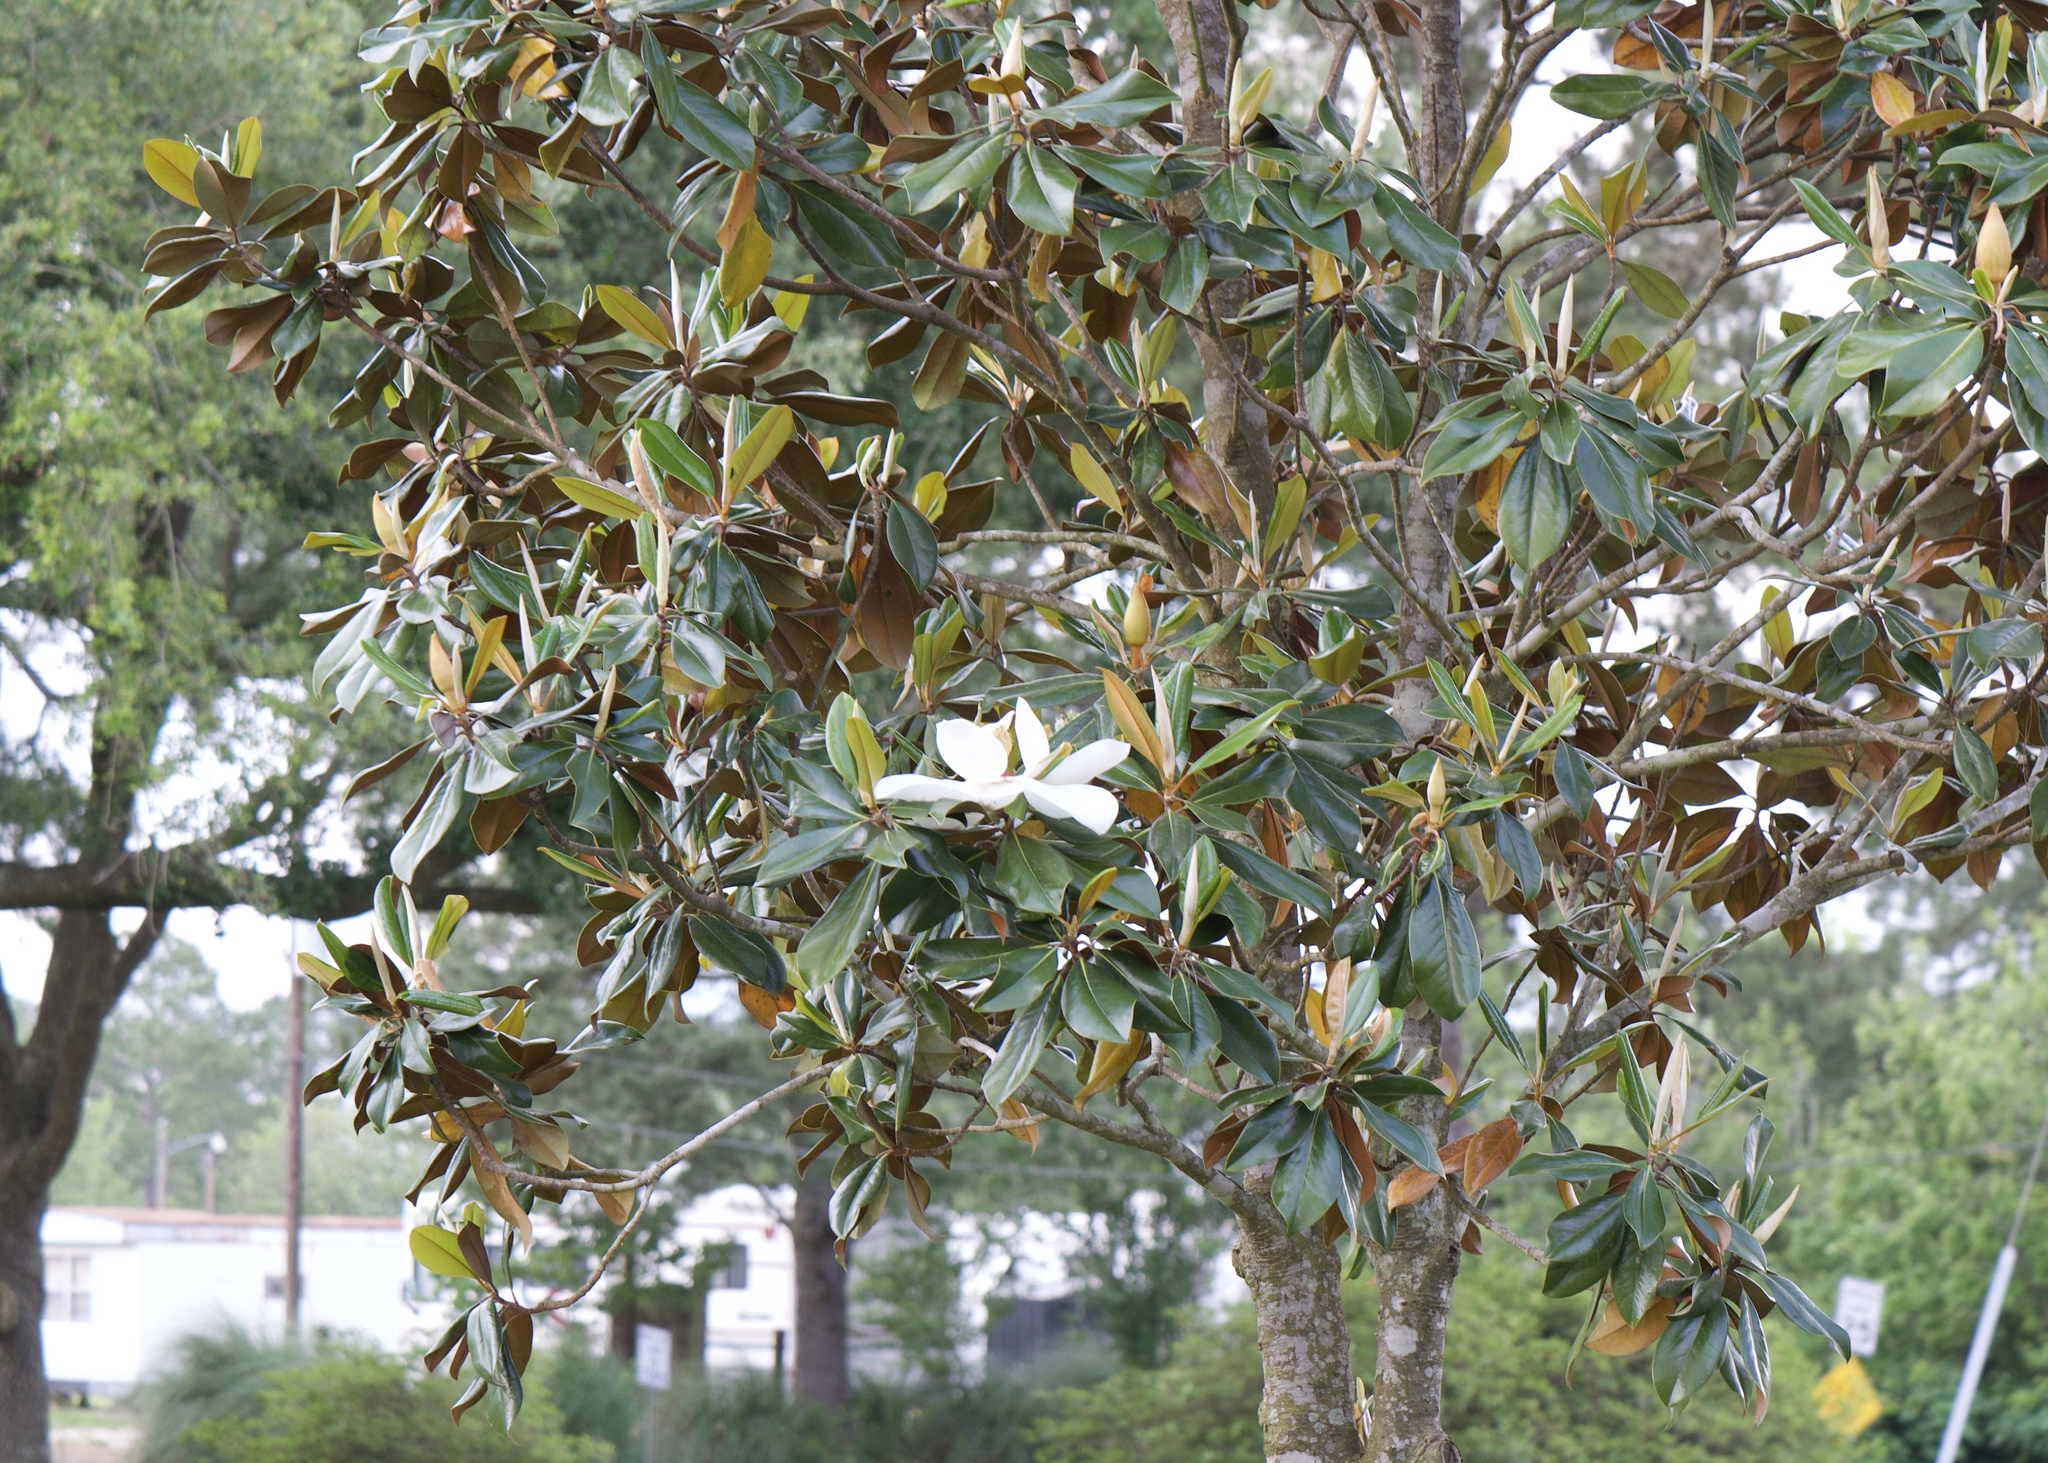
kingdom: Plantae
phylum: Tracheophyta
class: Magnoliopsida
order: Magnoliales
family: Magnoliaceae
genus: Magnolia
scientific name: Magnolia grandiflora
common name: Southern magnolia
